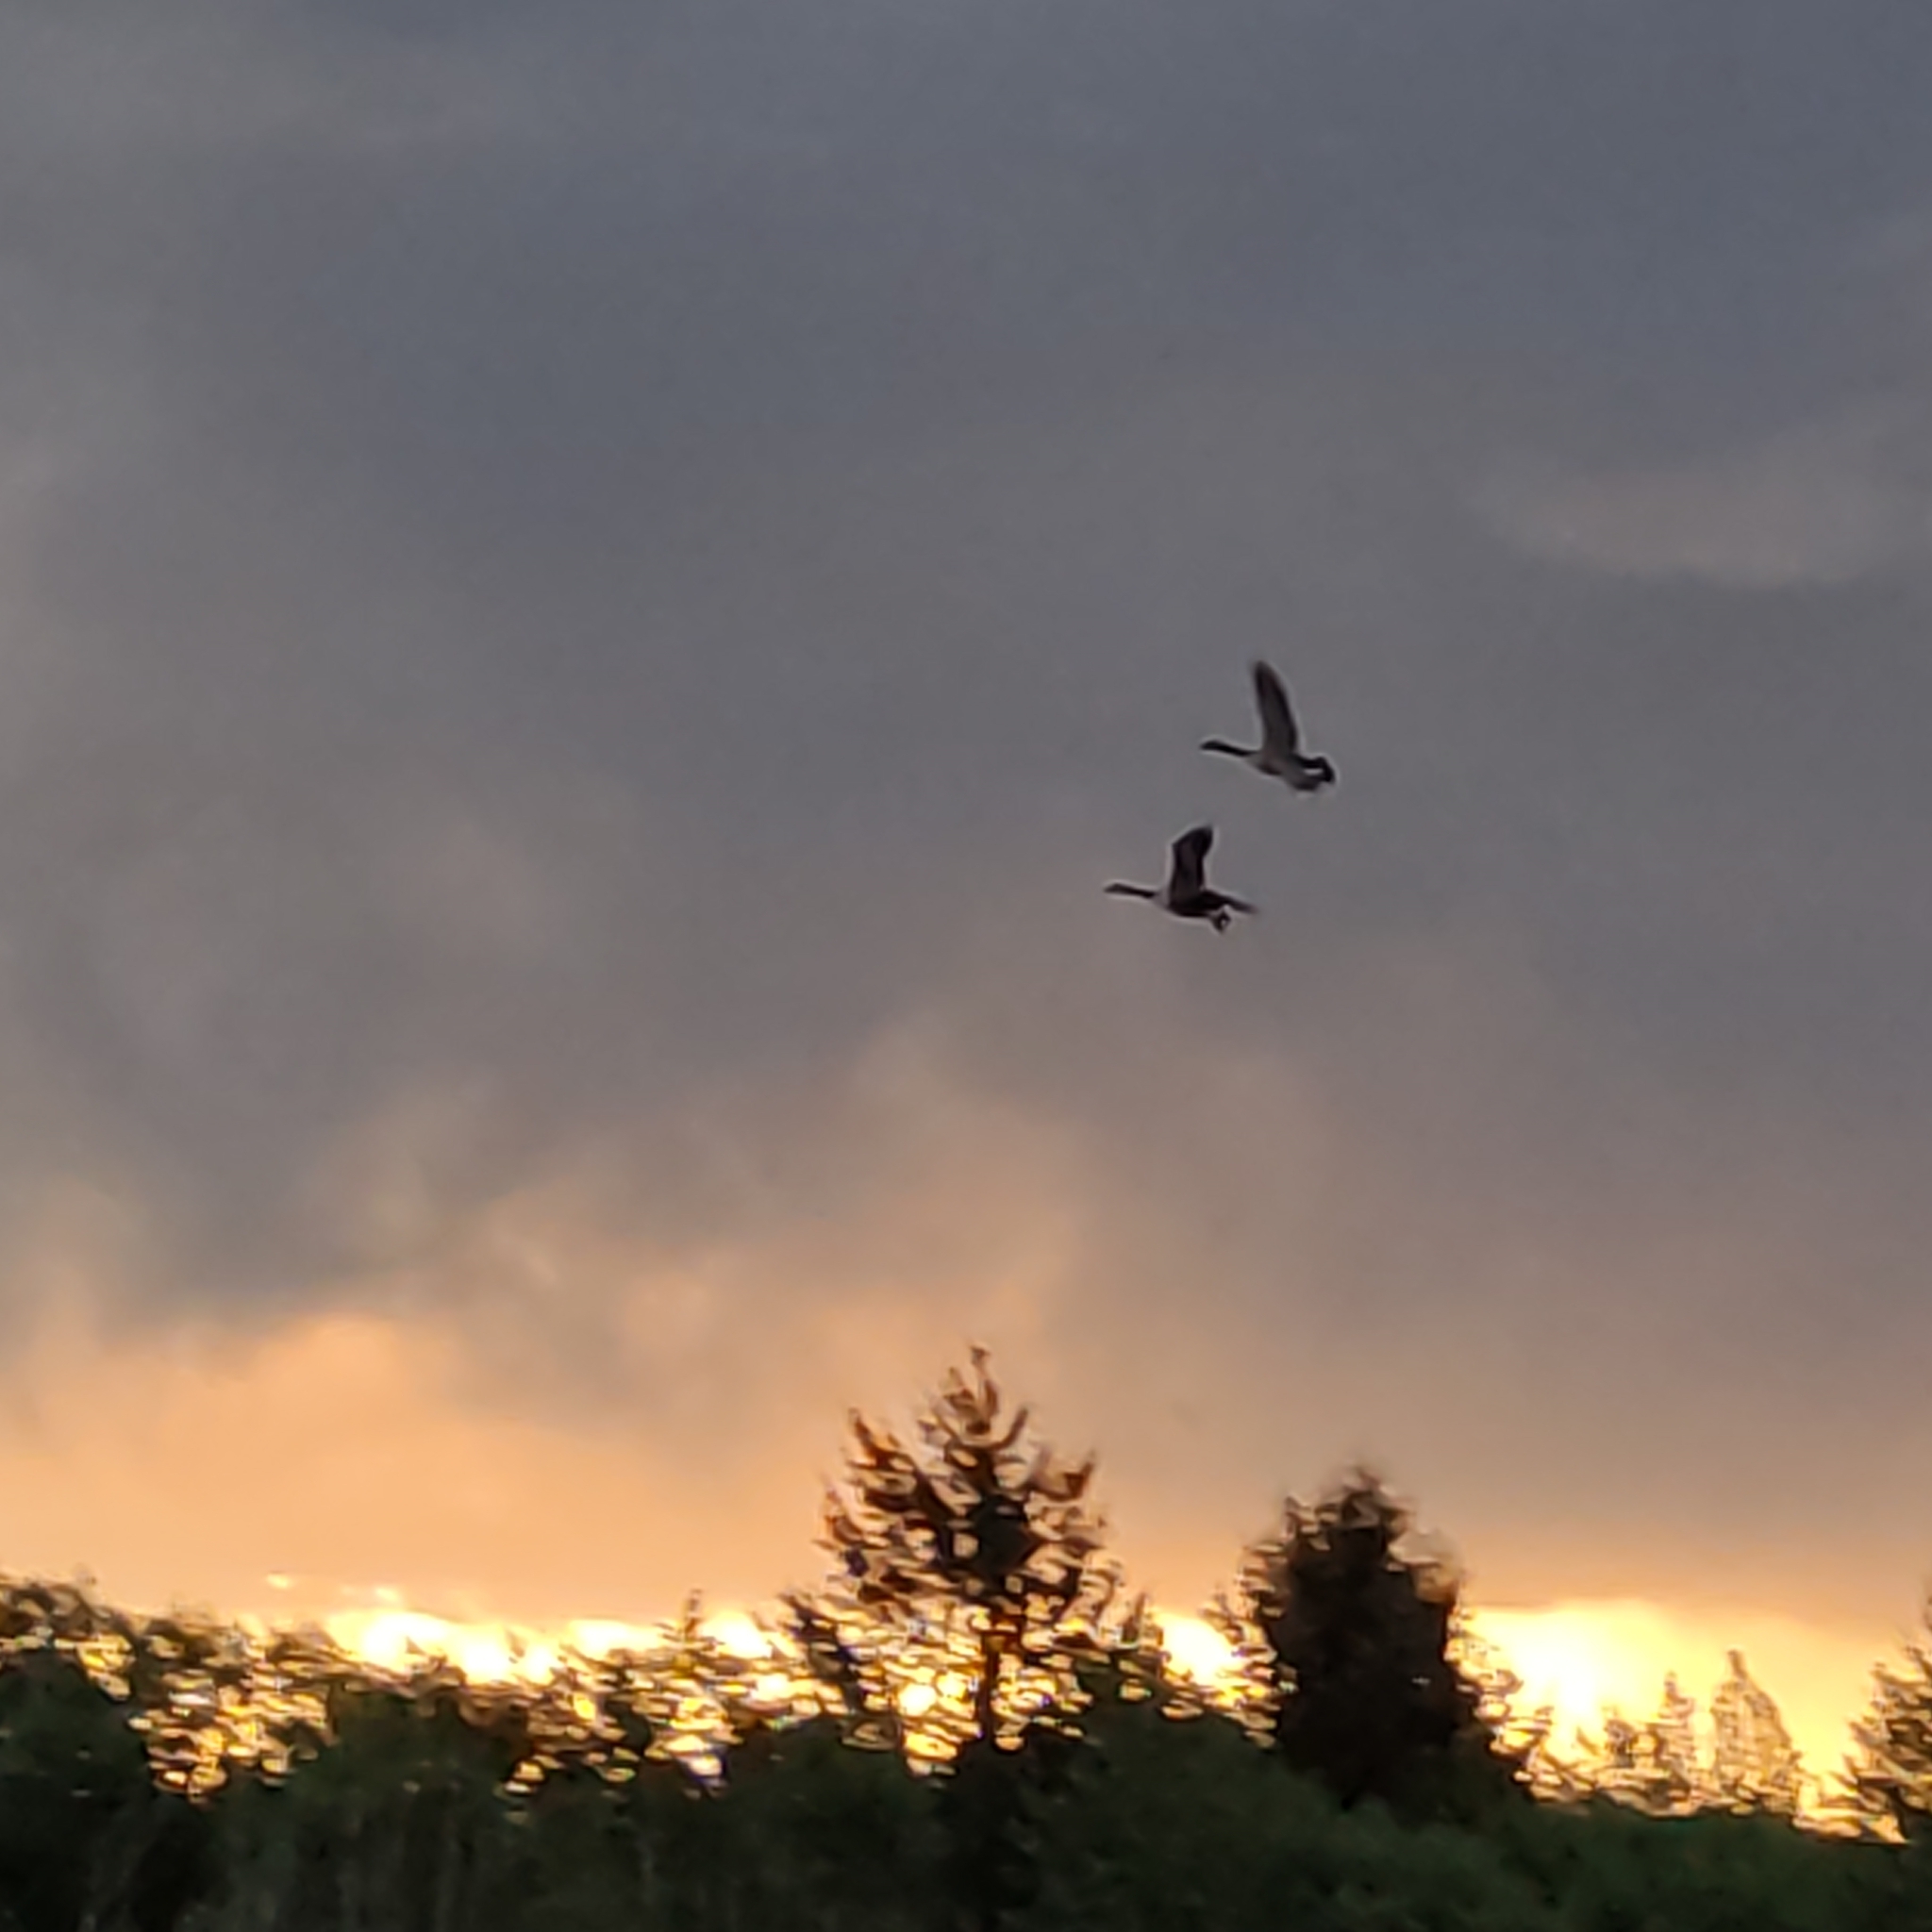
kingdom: Animalia
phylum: Chordata
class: Aves
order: Anseriformes
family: Anatidae
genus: Branta
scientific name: Branta canadensis
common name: Canada goose
